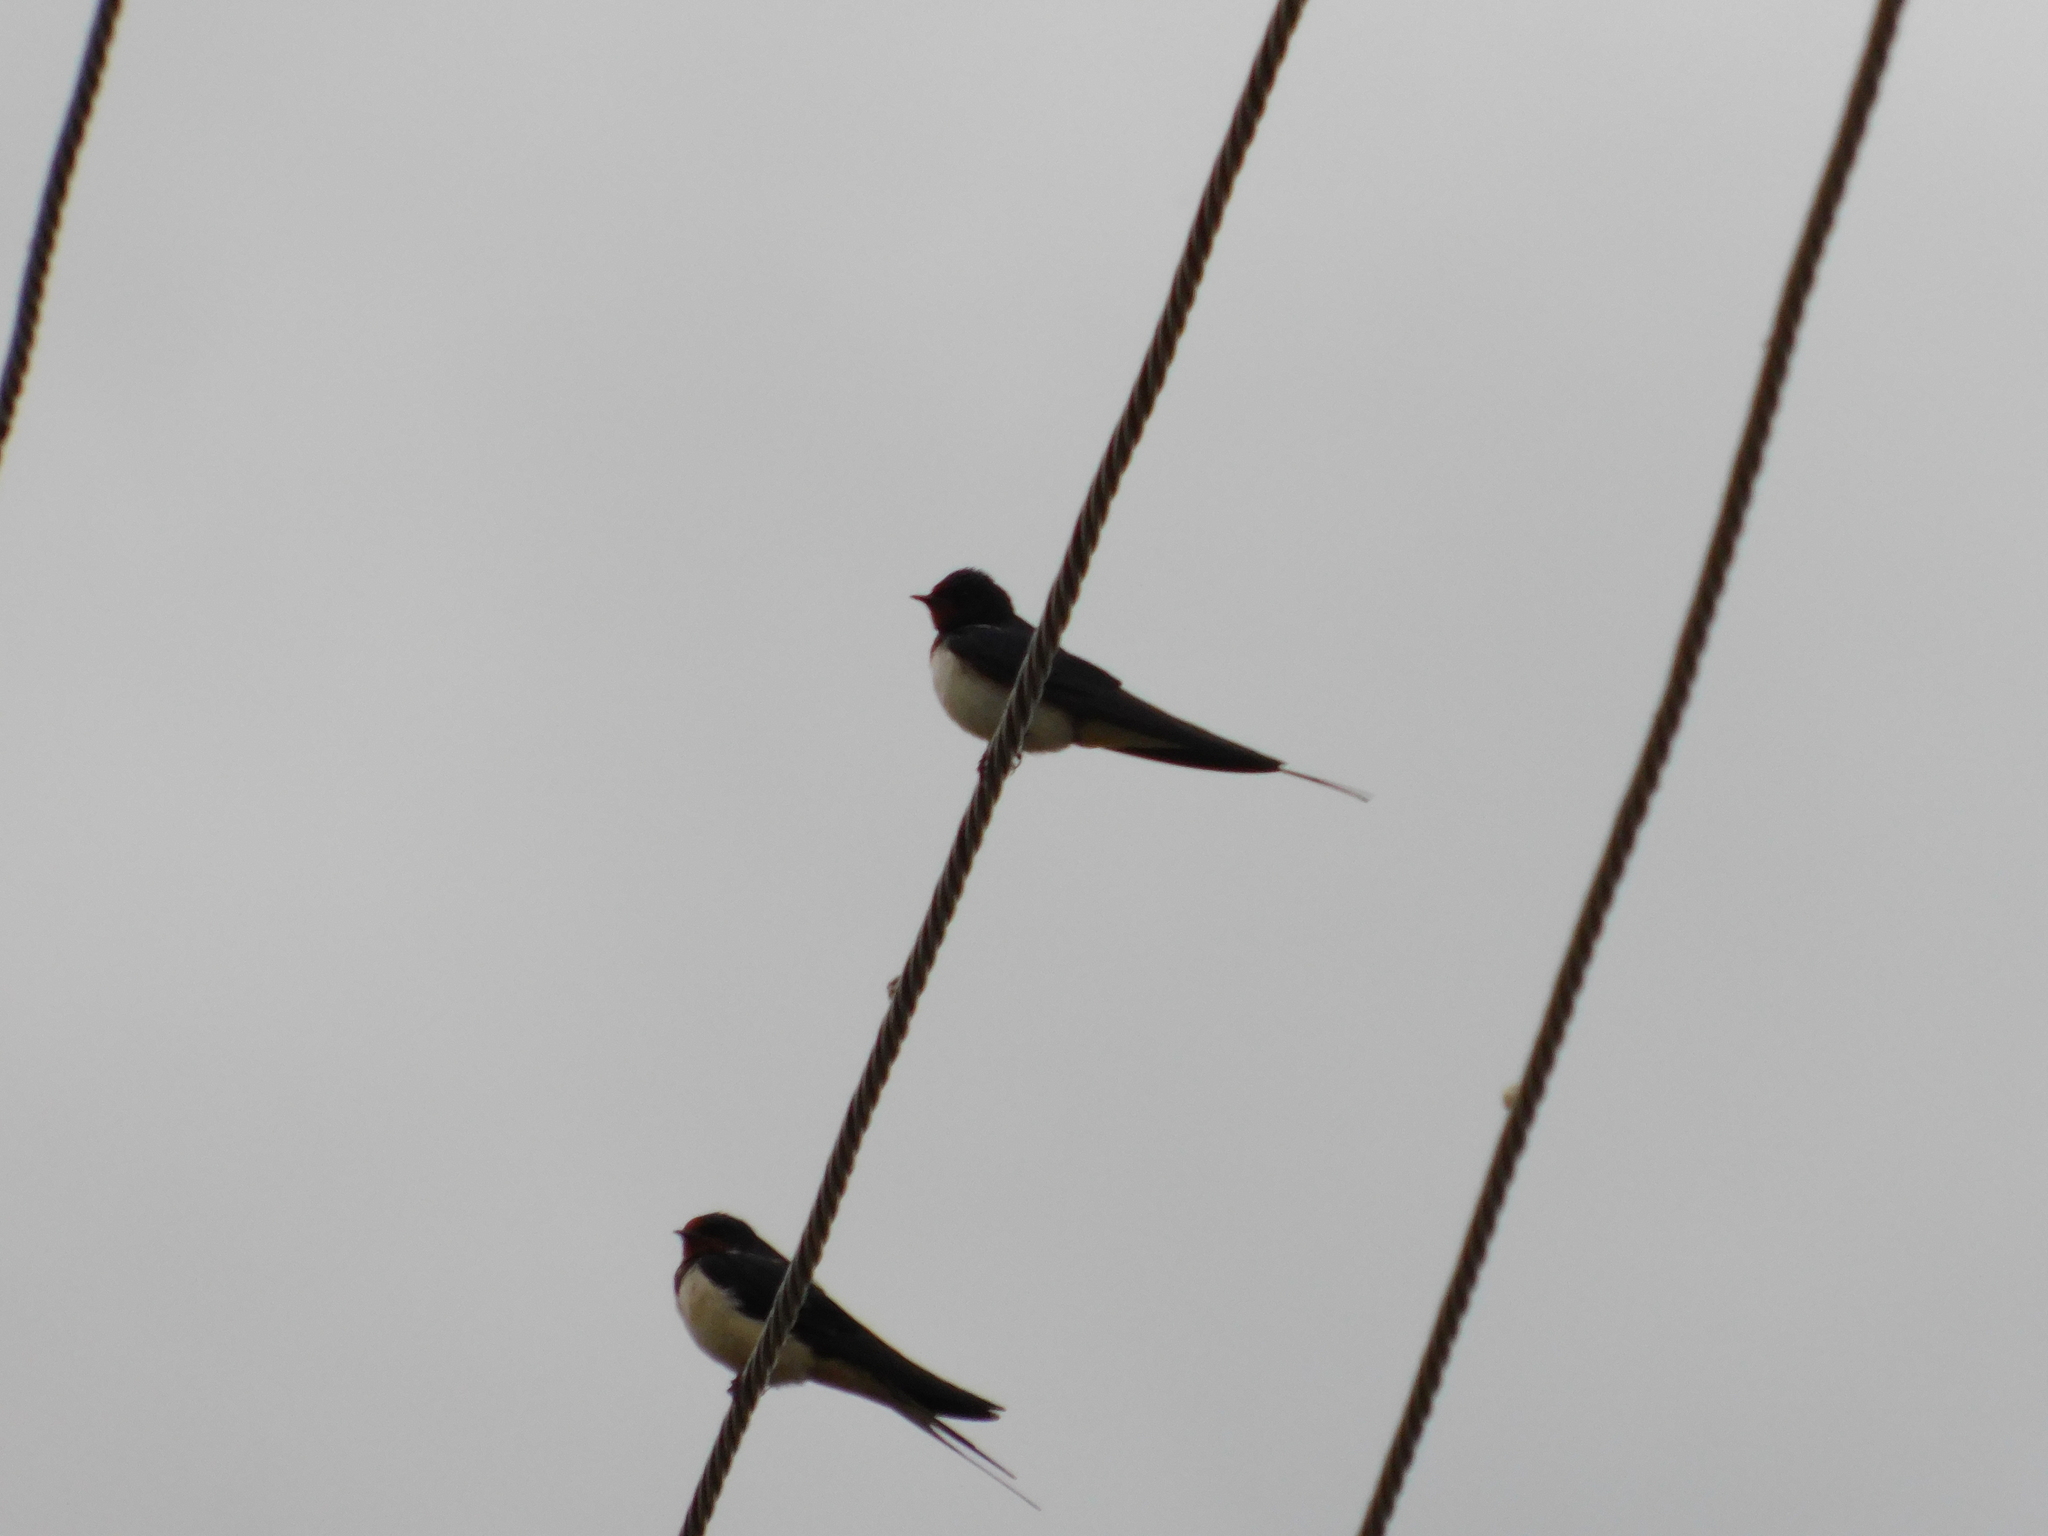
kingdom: Animalia
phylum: Chordata
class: Aves
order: Passeriformes
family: Hirundinidae
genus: Hirundo
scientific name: Hirundo rustica
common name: Barn swallow
